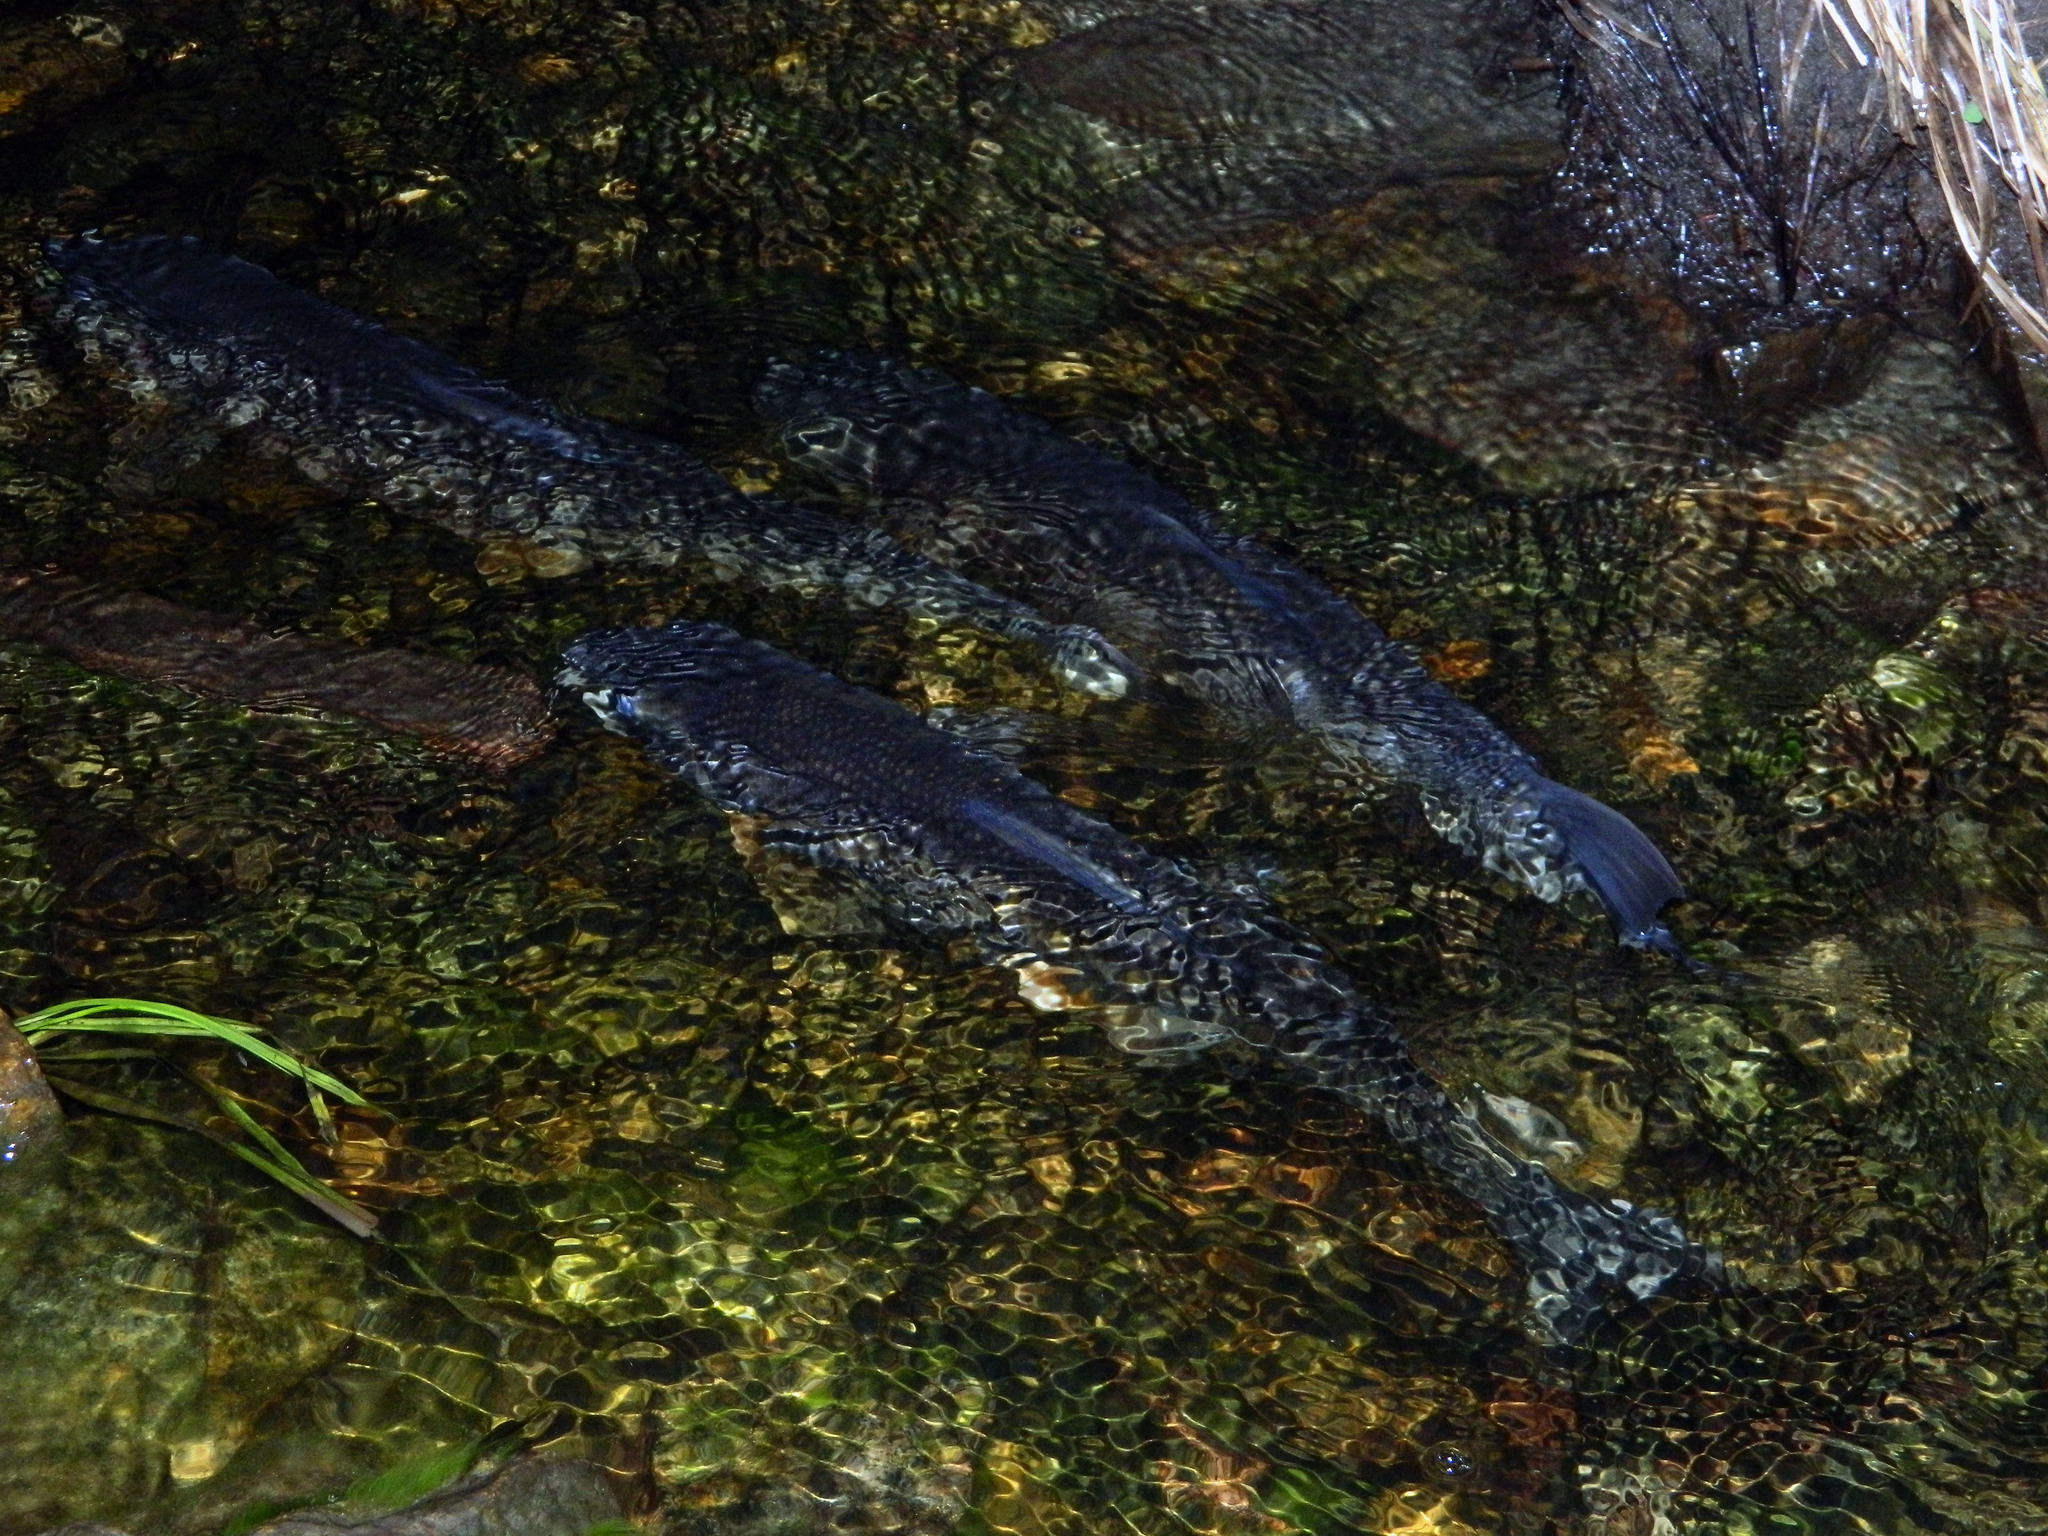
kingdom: Animalia
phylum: Chordata
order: Cypriniformes
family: Catostomidae
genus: Catostomus
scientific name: Catostomus commersonii
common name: White sucker
